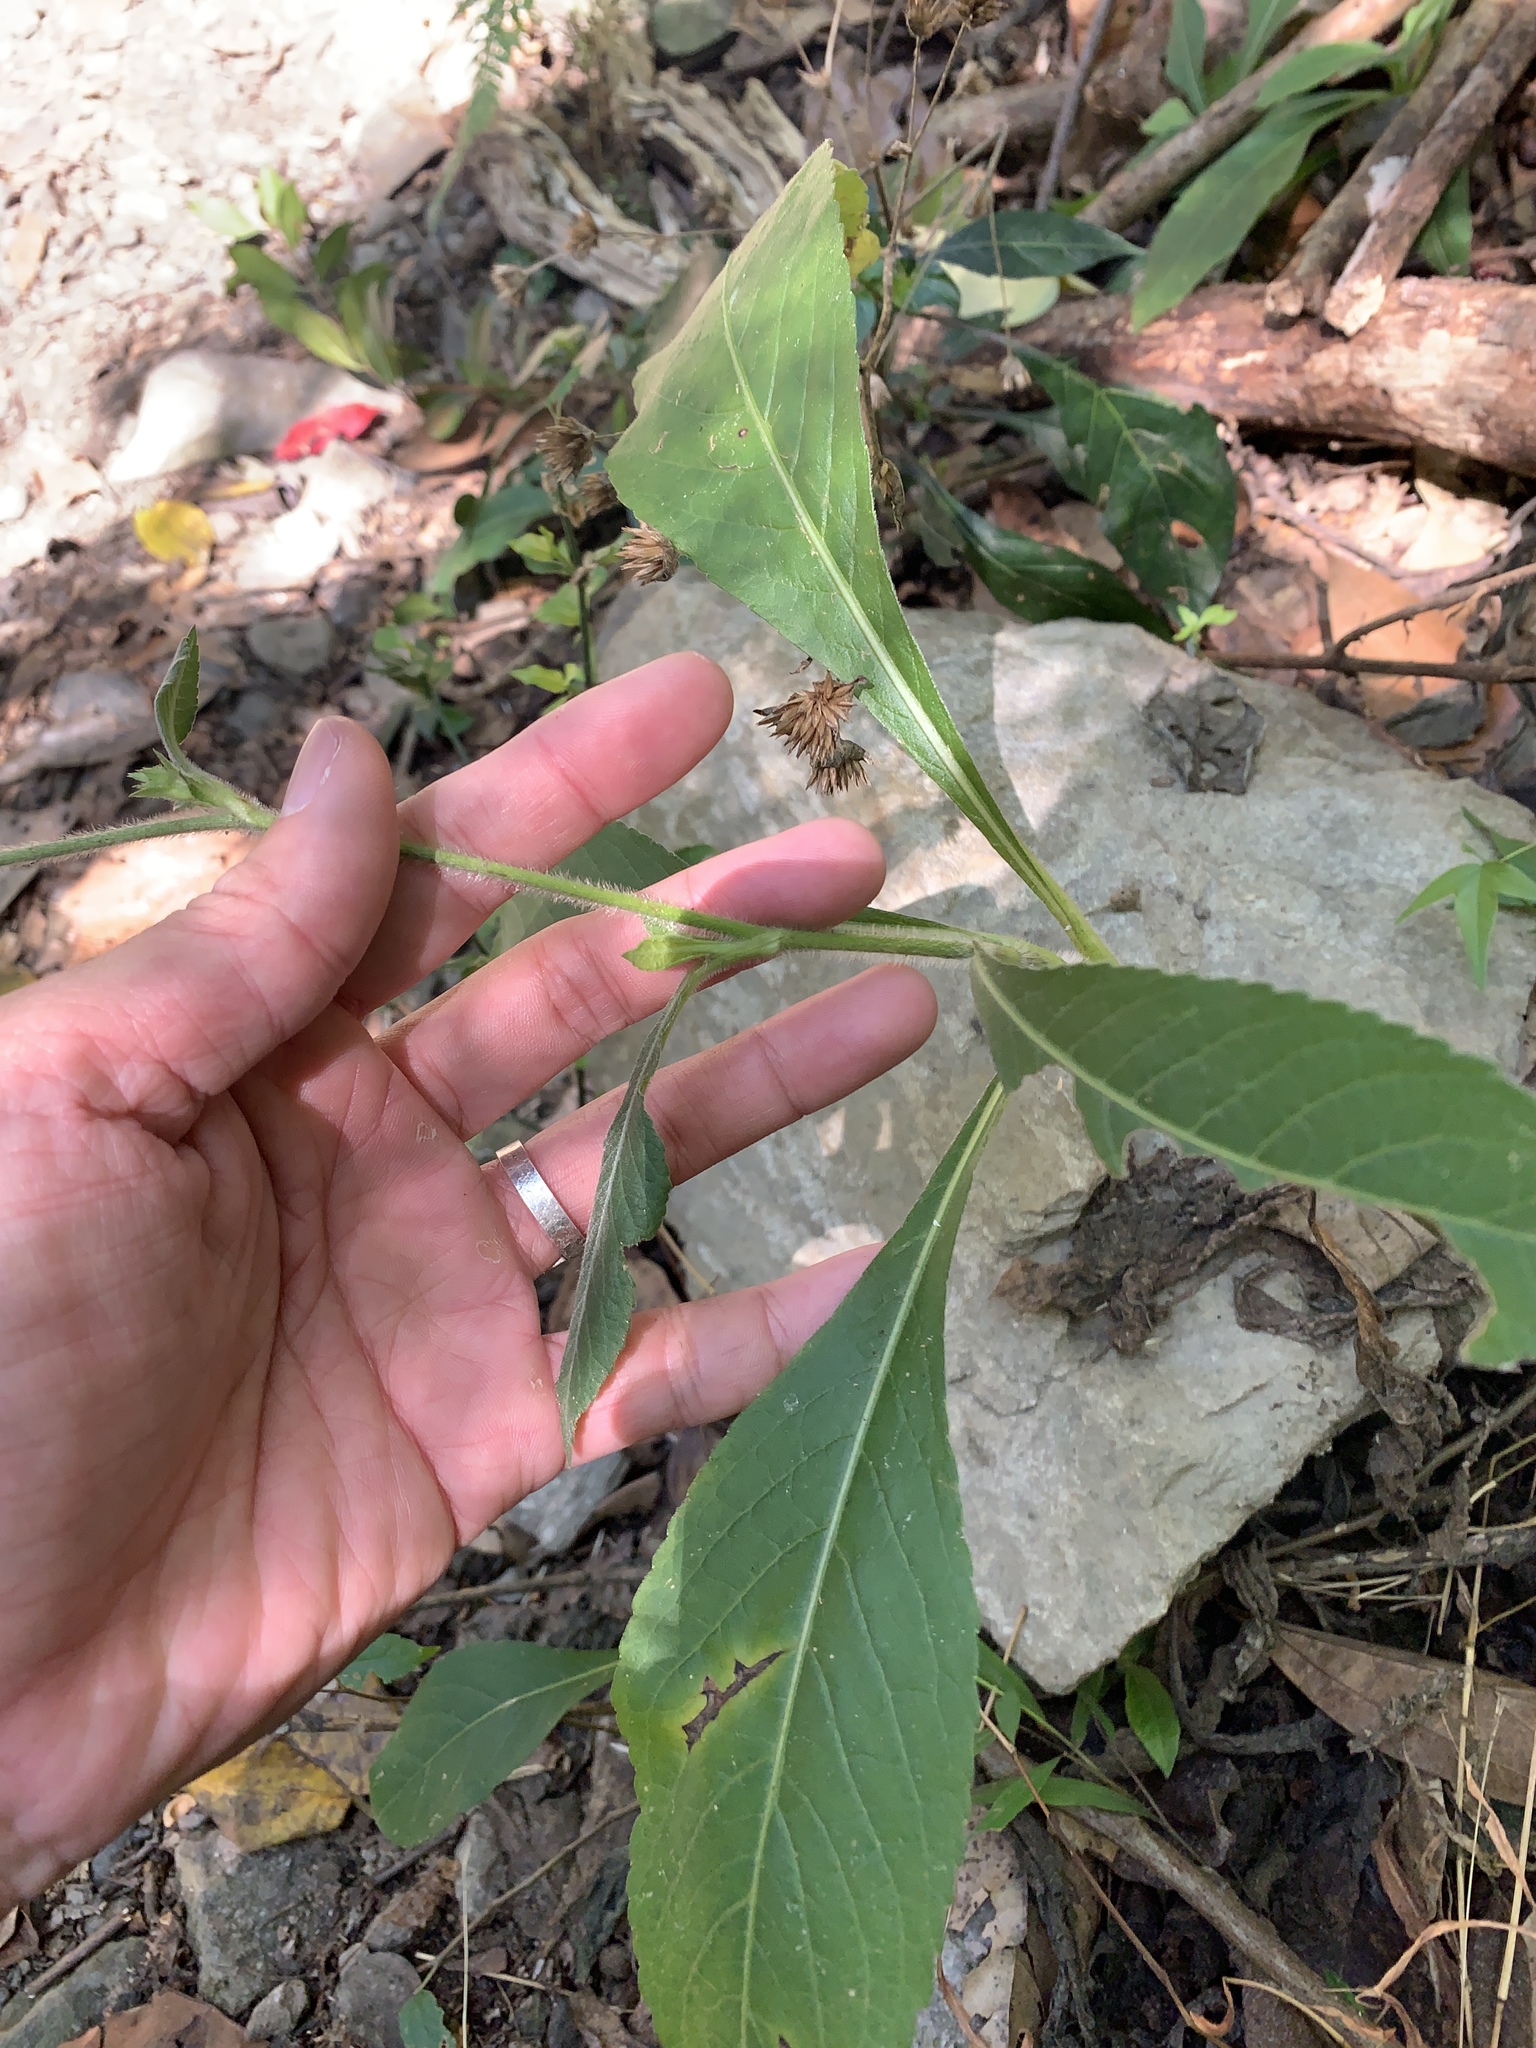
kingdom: Plantae
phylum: Tracheophyta
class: Magnoliopsida
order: Asterales
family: Asteraceae
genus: Elephantopus
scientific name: Elephantopus mollis
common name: Soft elephantsfoot
